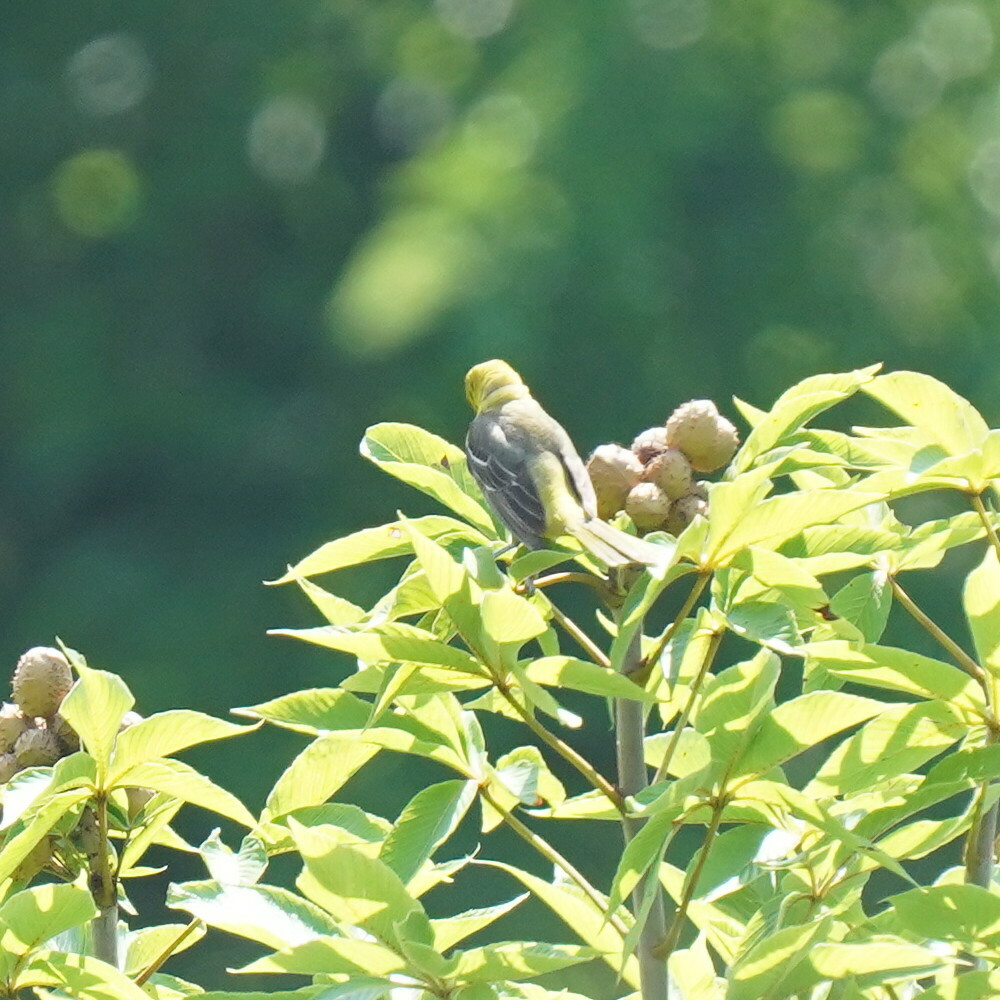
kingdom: Animalia
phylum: Chordata
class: Aves
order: Passeriformes
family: Icteridae
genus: Icterus
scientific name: Icterus spurius
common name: Orchard oriole
